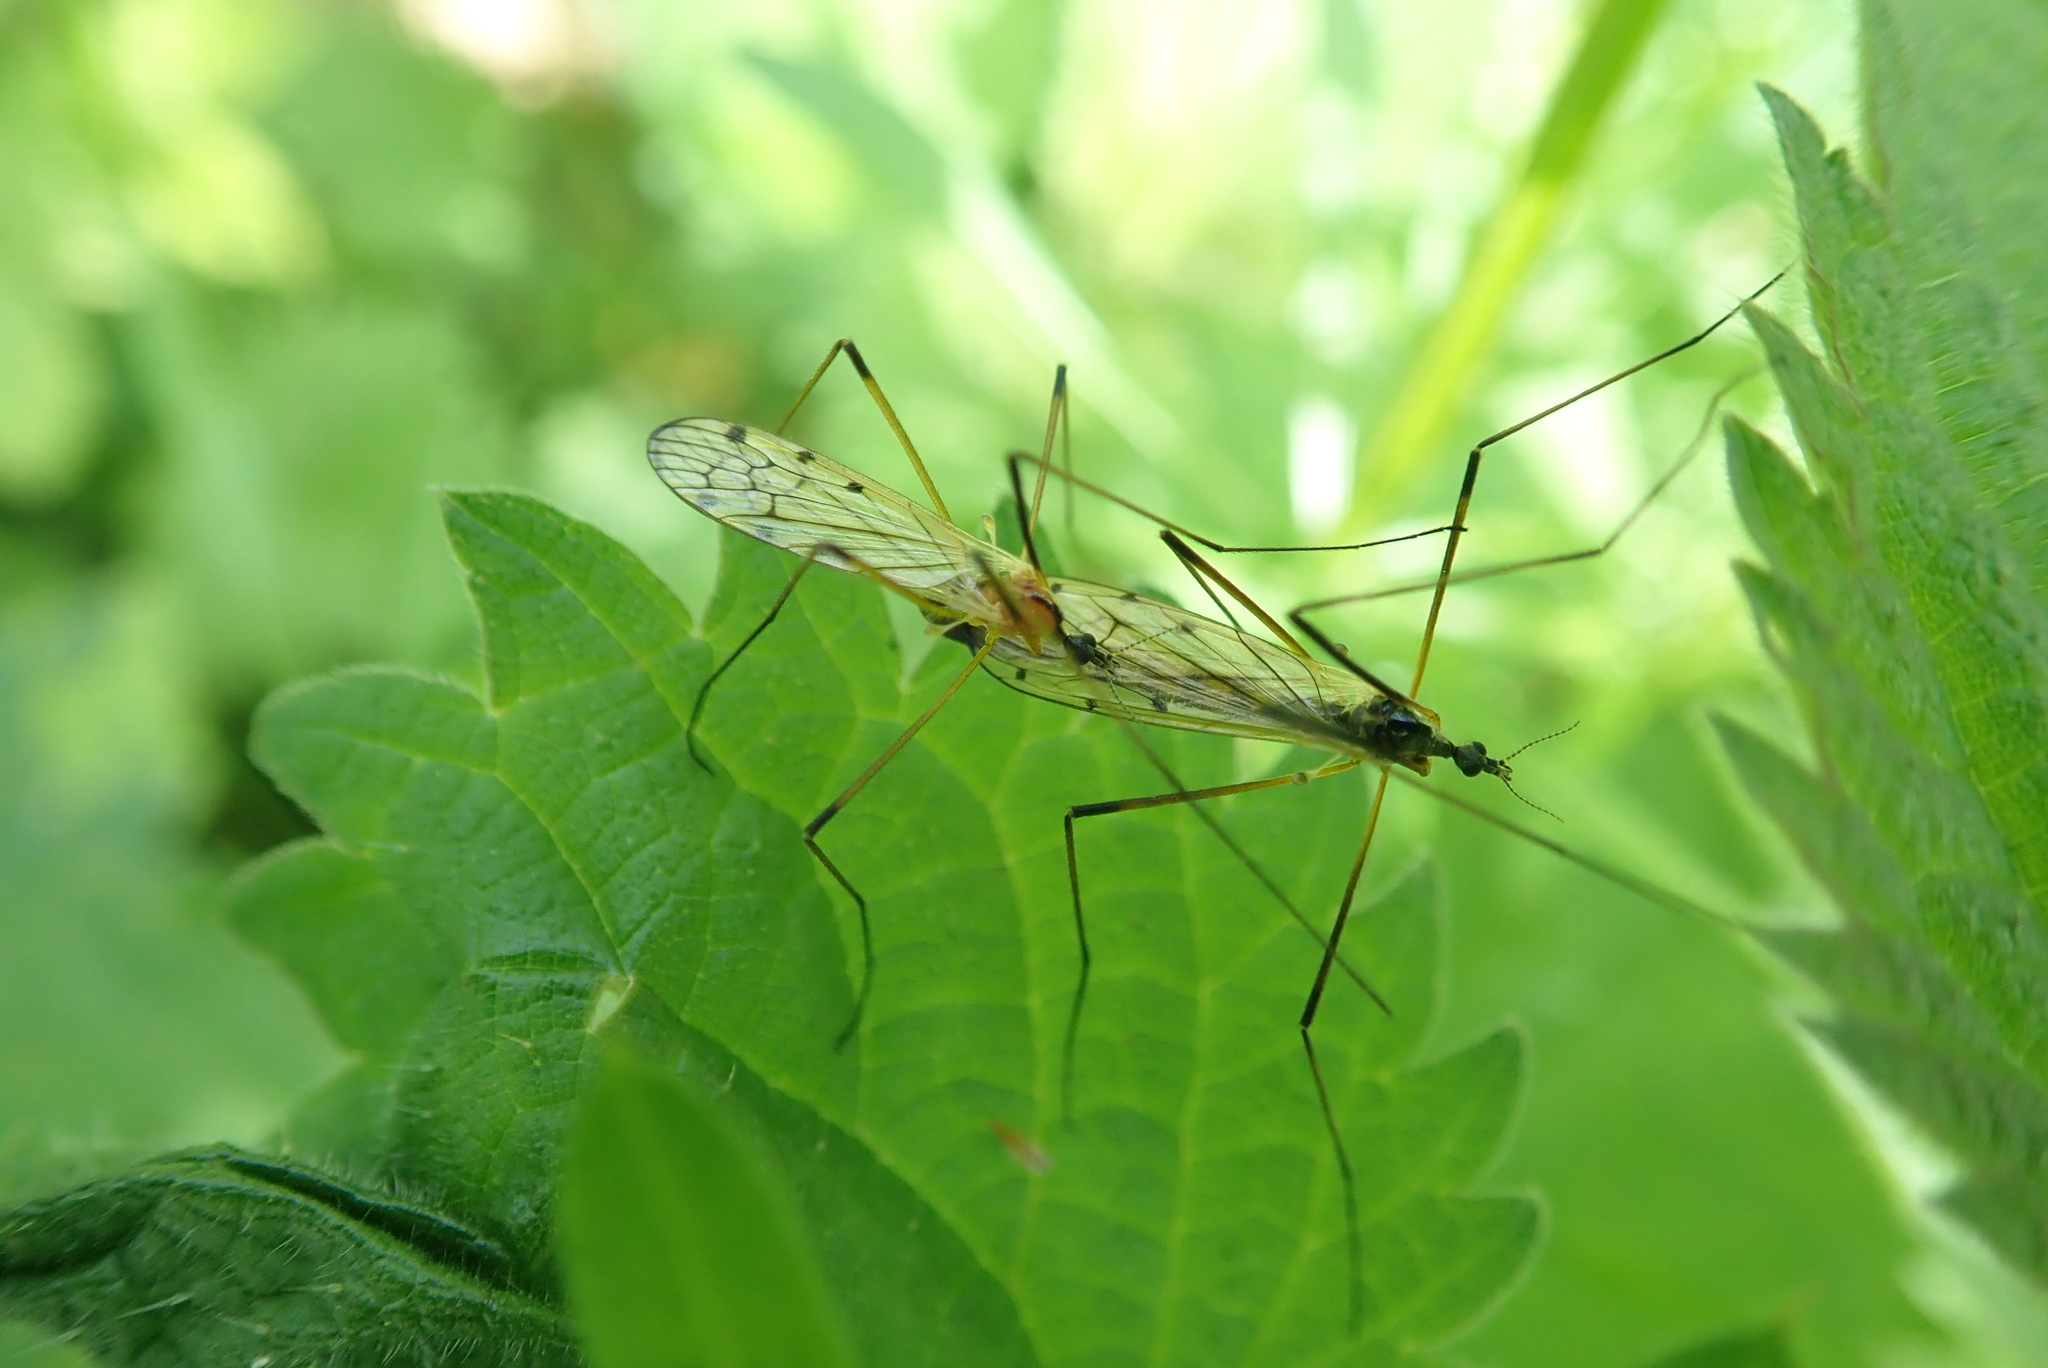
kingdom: Animalia
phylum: Arthropoda
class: Insecta
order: Diptera
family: Limoniidae
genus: Limonia
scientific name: Limonia nigropunctata
